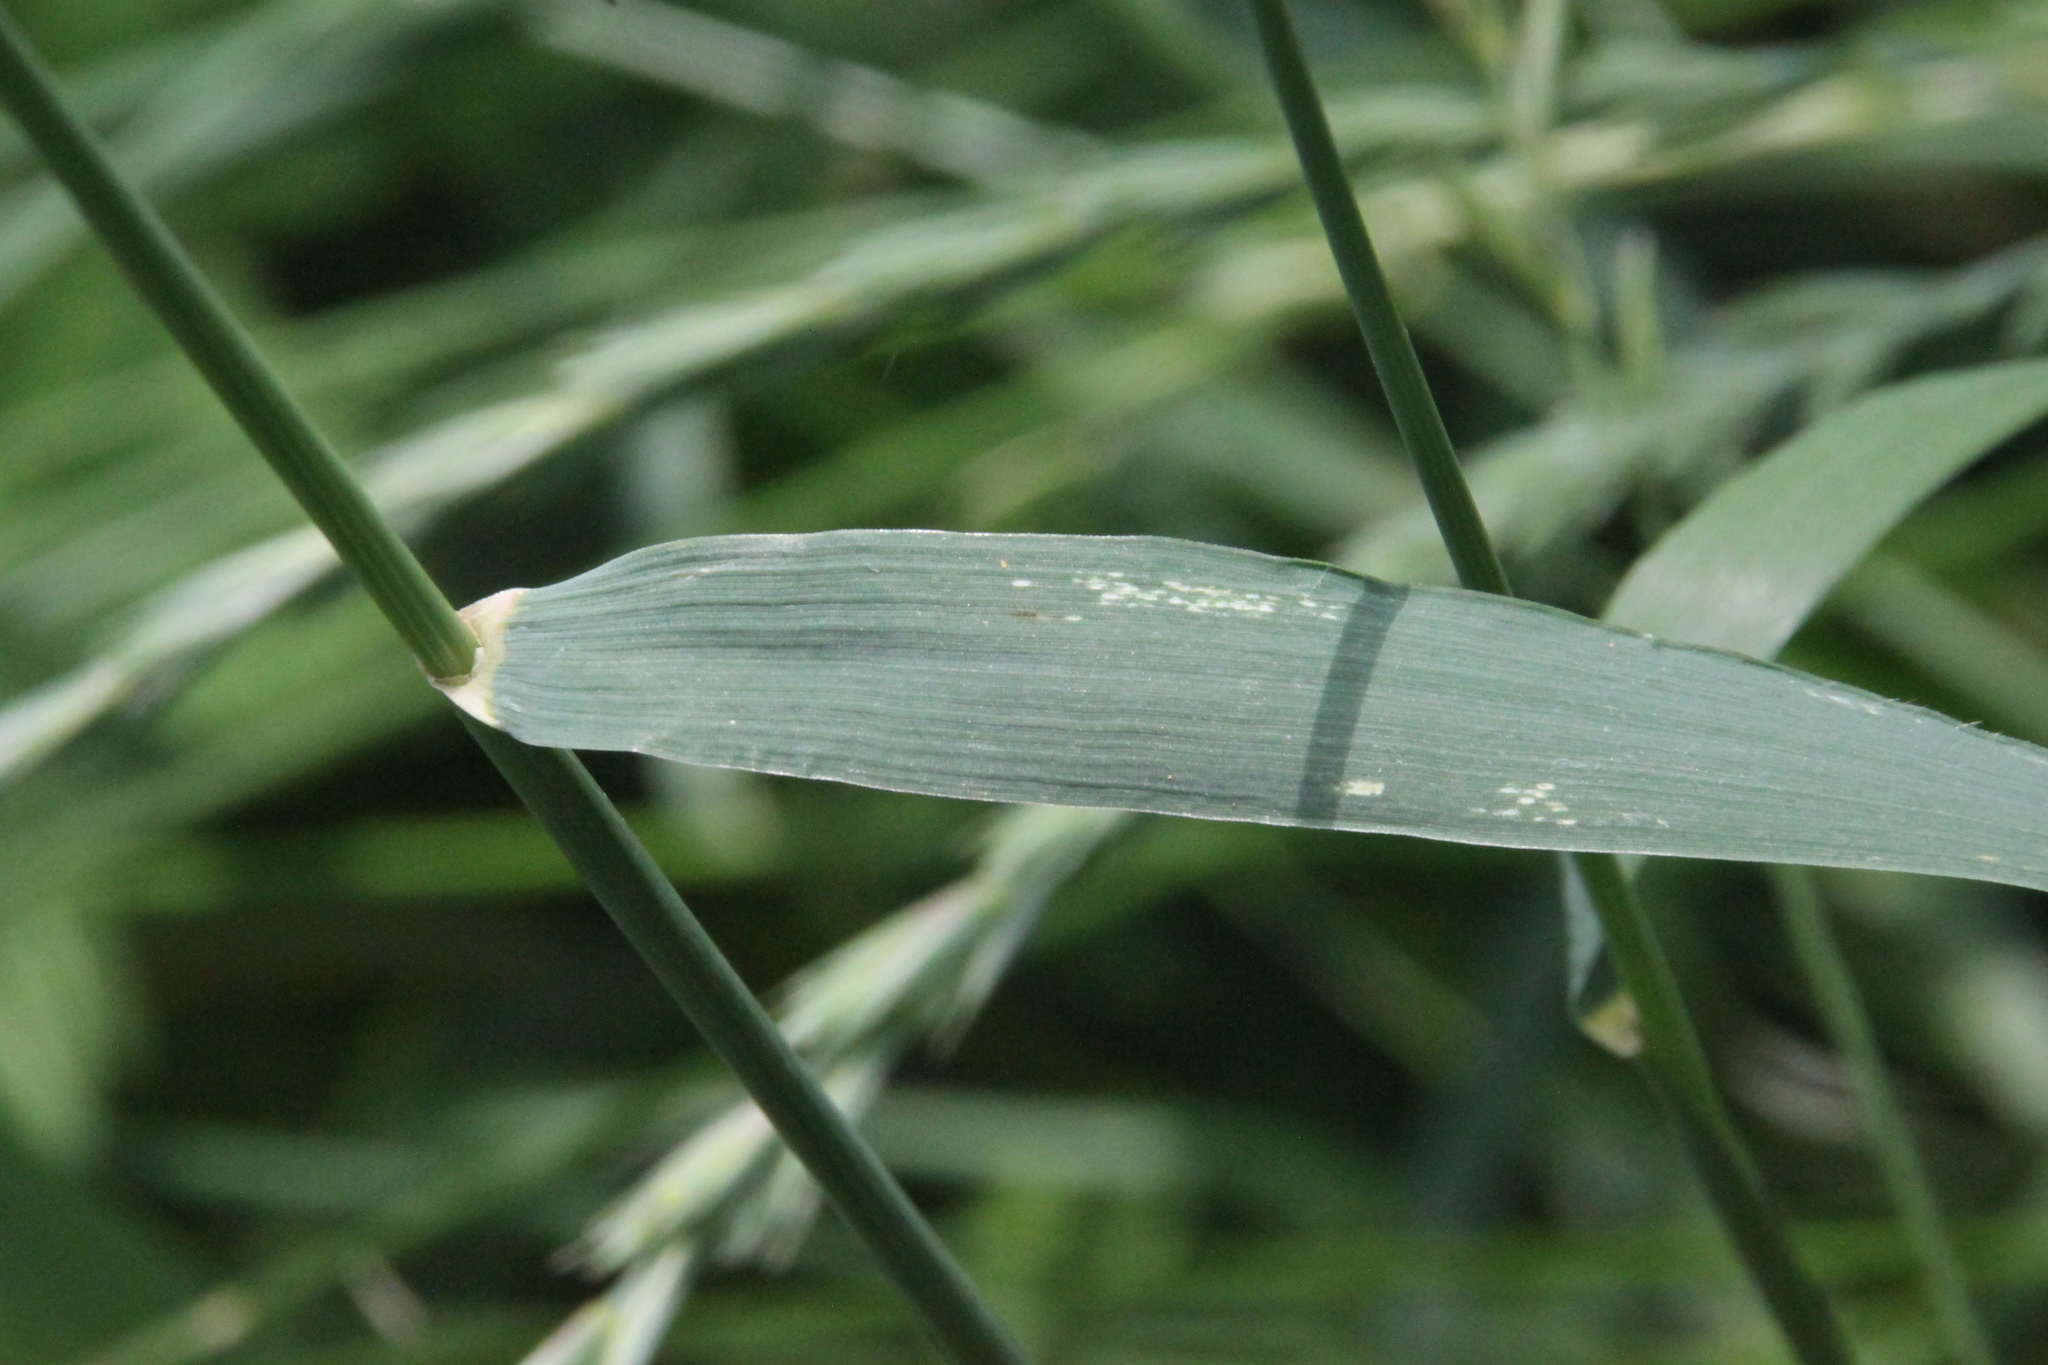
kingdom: Plantae
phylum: Tracheophyta
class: Liliopsida
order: Poales
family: Poaceae
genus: Elymus
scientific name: Elymus repens
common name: Quackgrass
